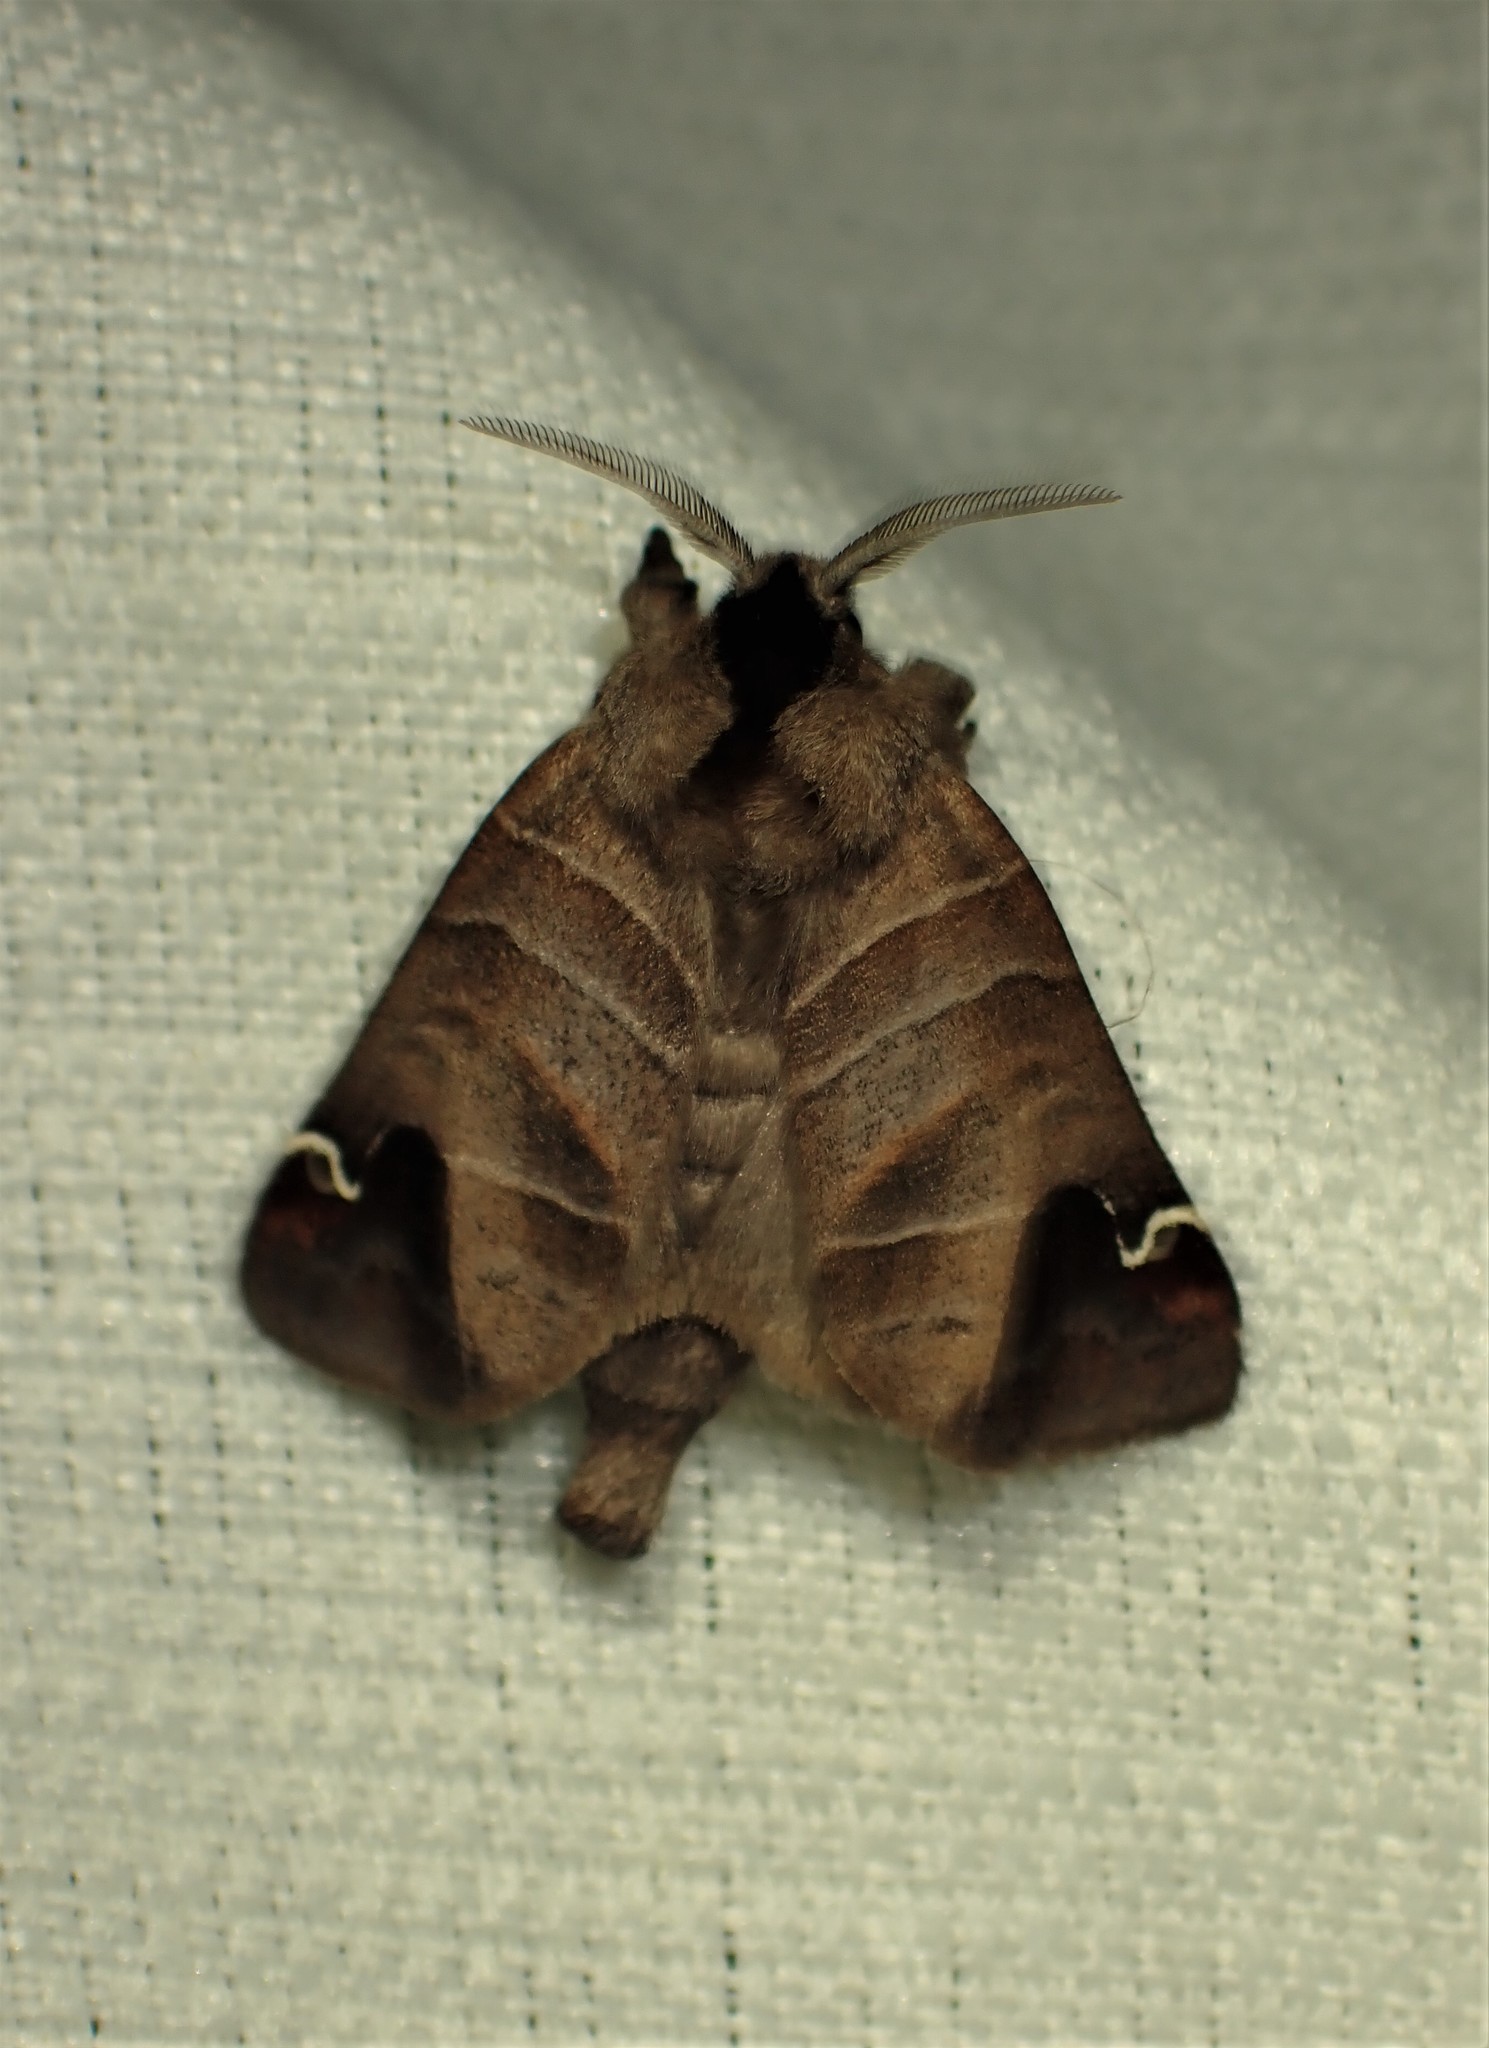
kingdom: Animalia
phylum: Arthropoda
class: Insecta
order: Lepidoptera
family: Notodontidae
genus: Clostera
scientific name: Clostera albosigma
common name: Sigmoid prominent
